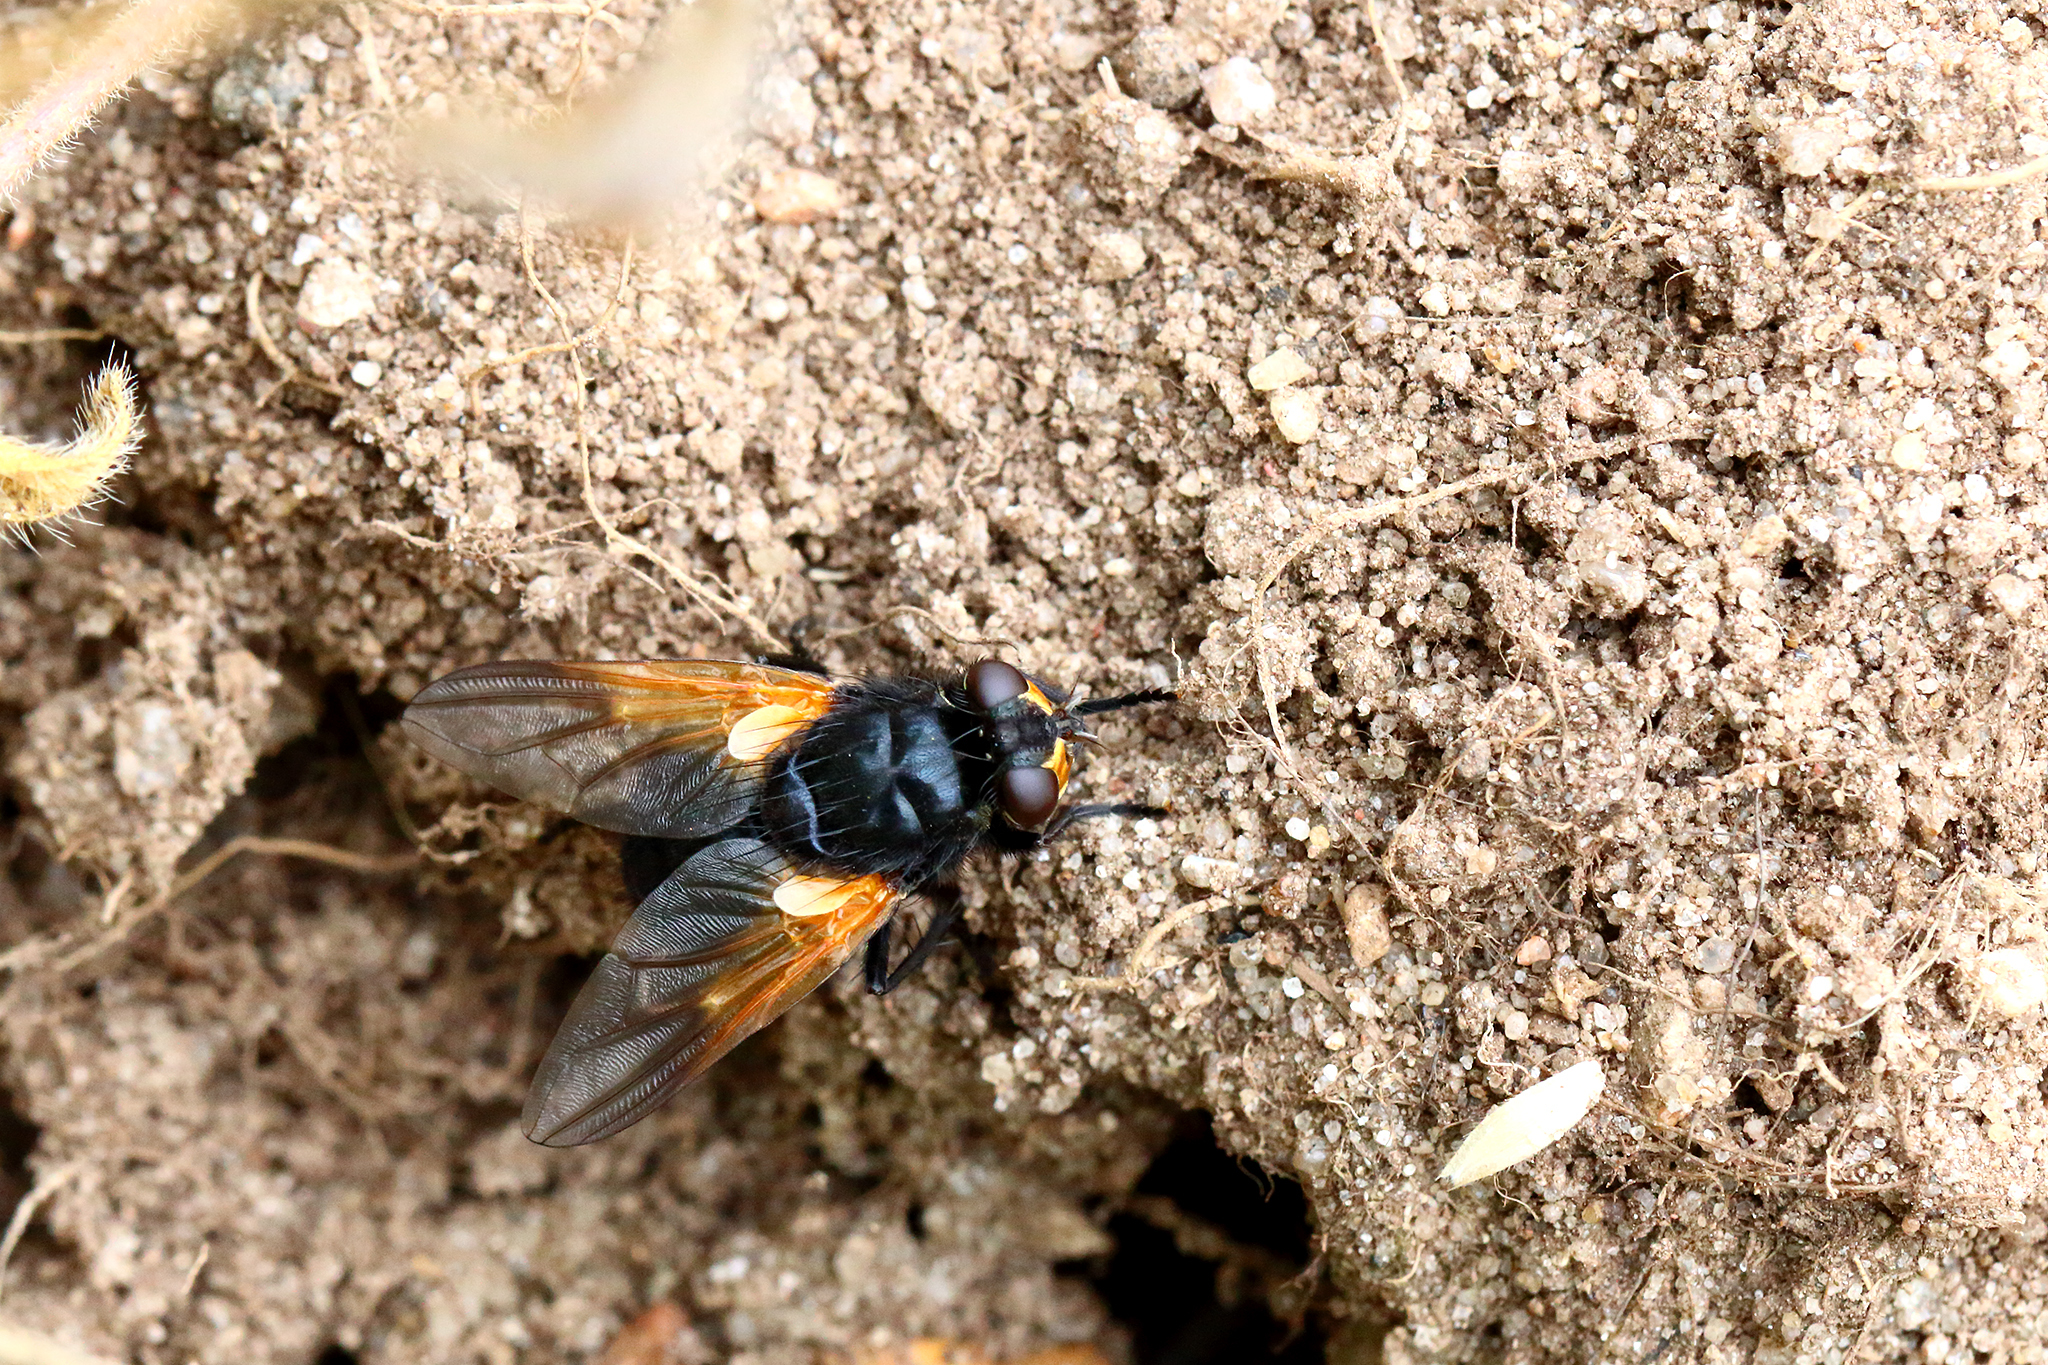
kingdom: Animalia
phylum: Arthropoda
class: Insecta
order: Diptera
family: Muscidae
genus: Mesembrina
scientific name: Mesembrina meridiana
